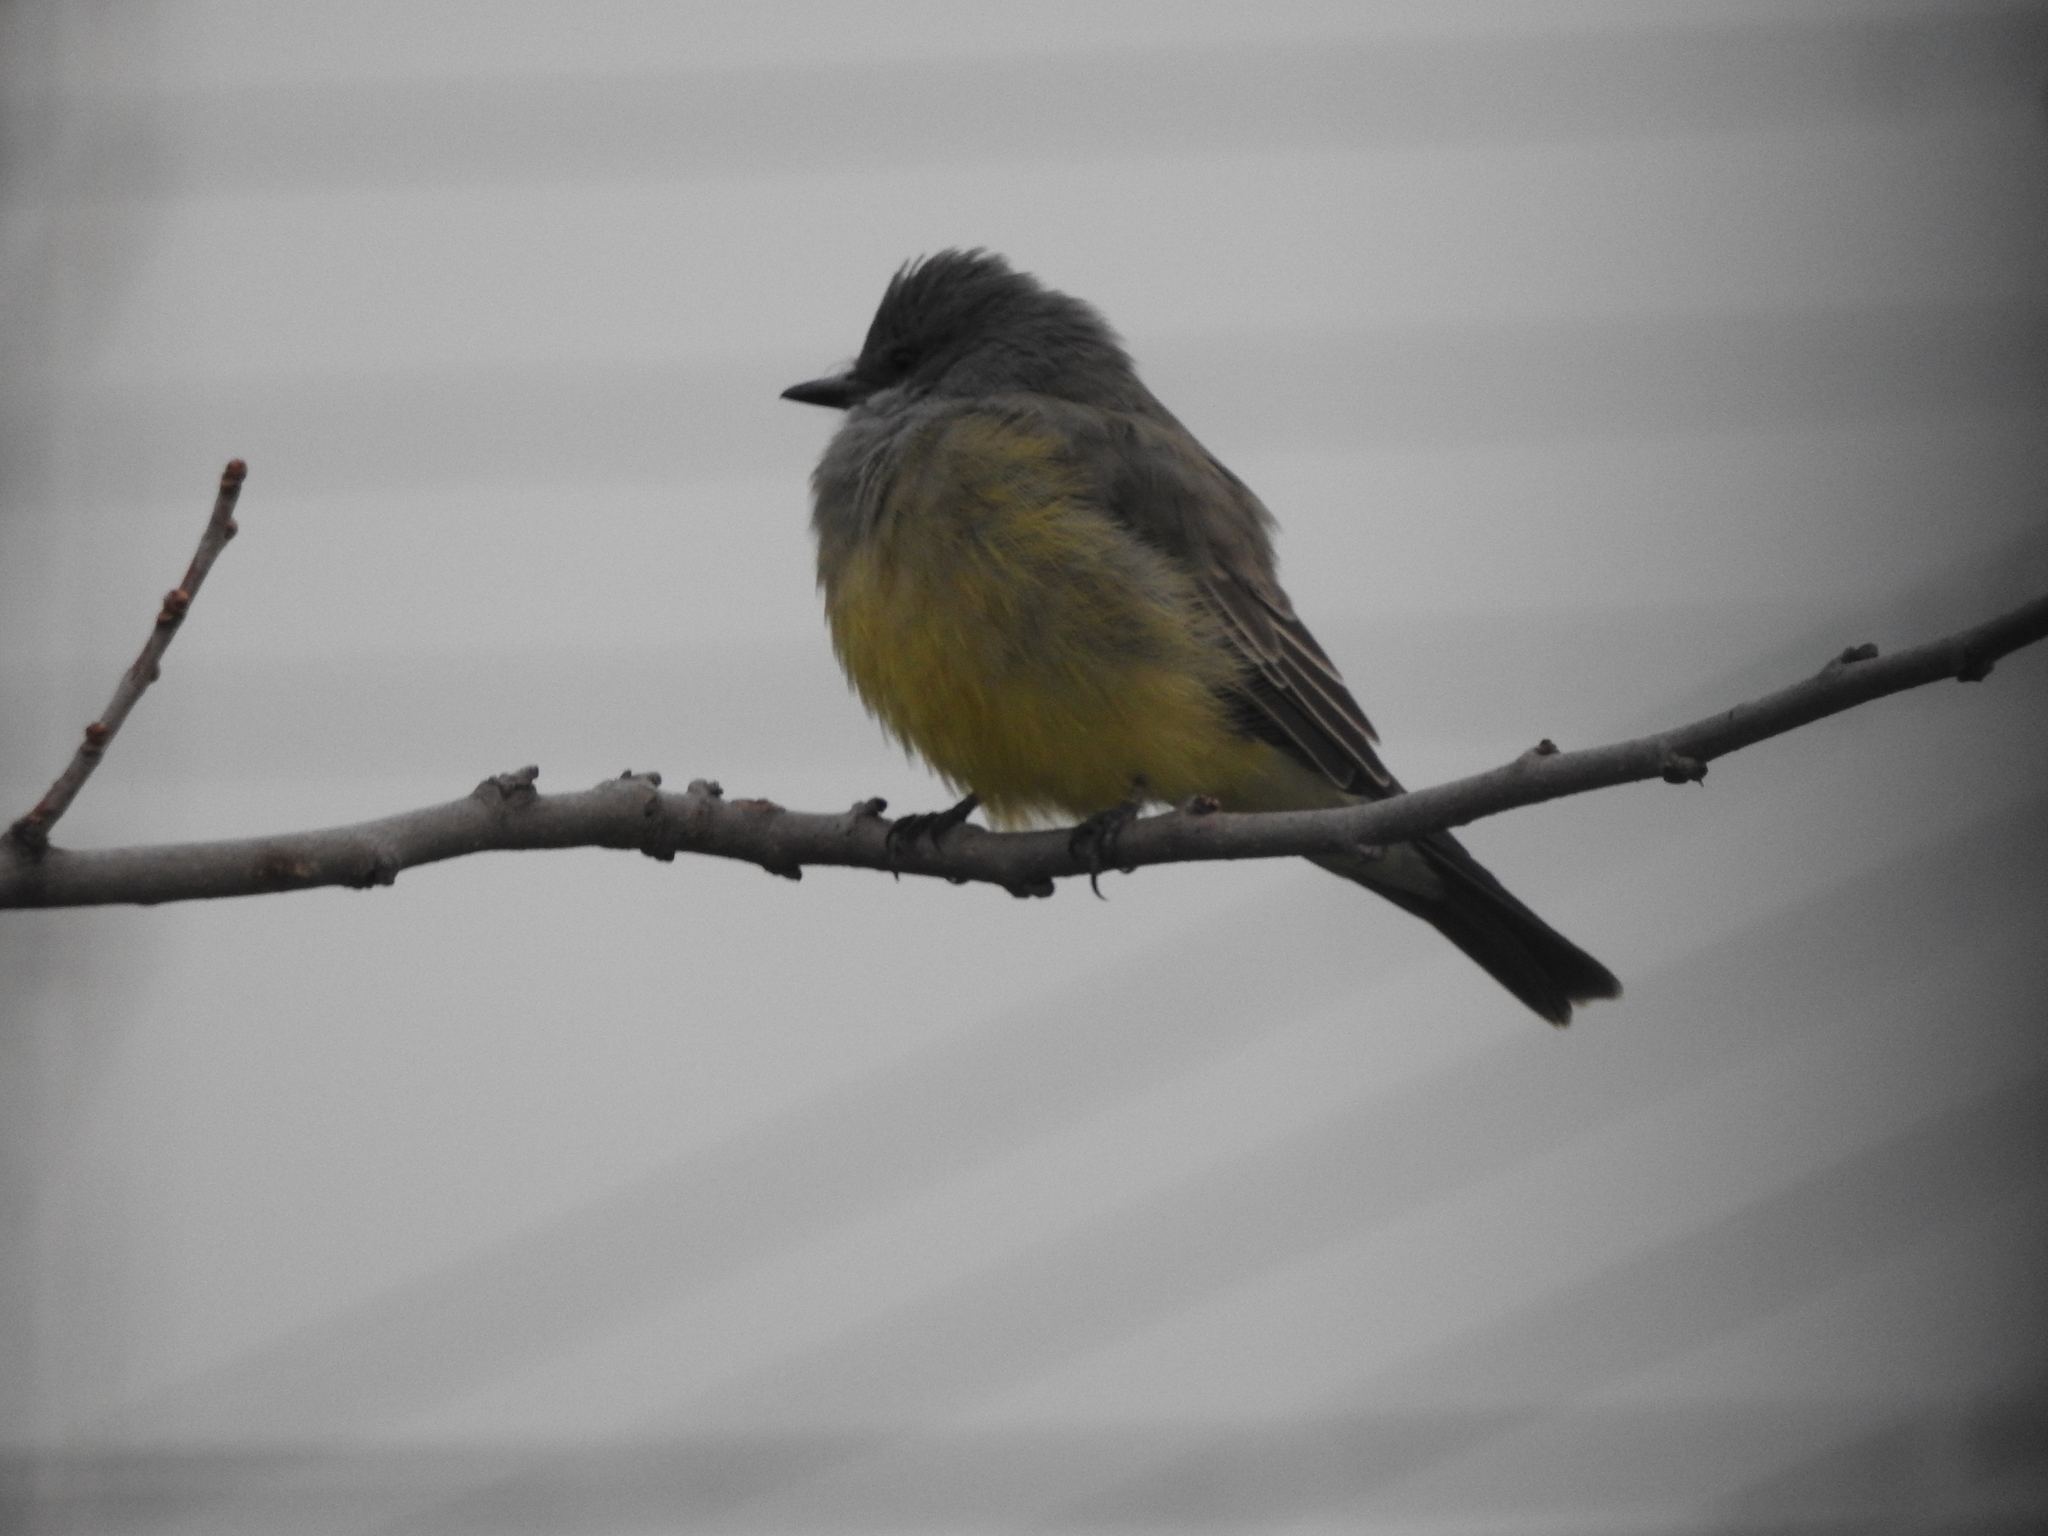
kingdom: Animalia
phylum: Chordata
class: Aves
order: Passeriformes
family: Tyrannidae
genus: Tyrannus
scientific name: Tyrannus vociferans
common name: Cassin's kingbird
